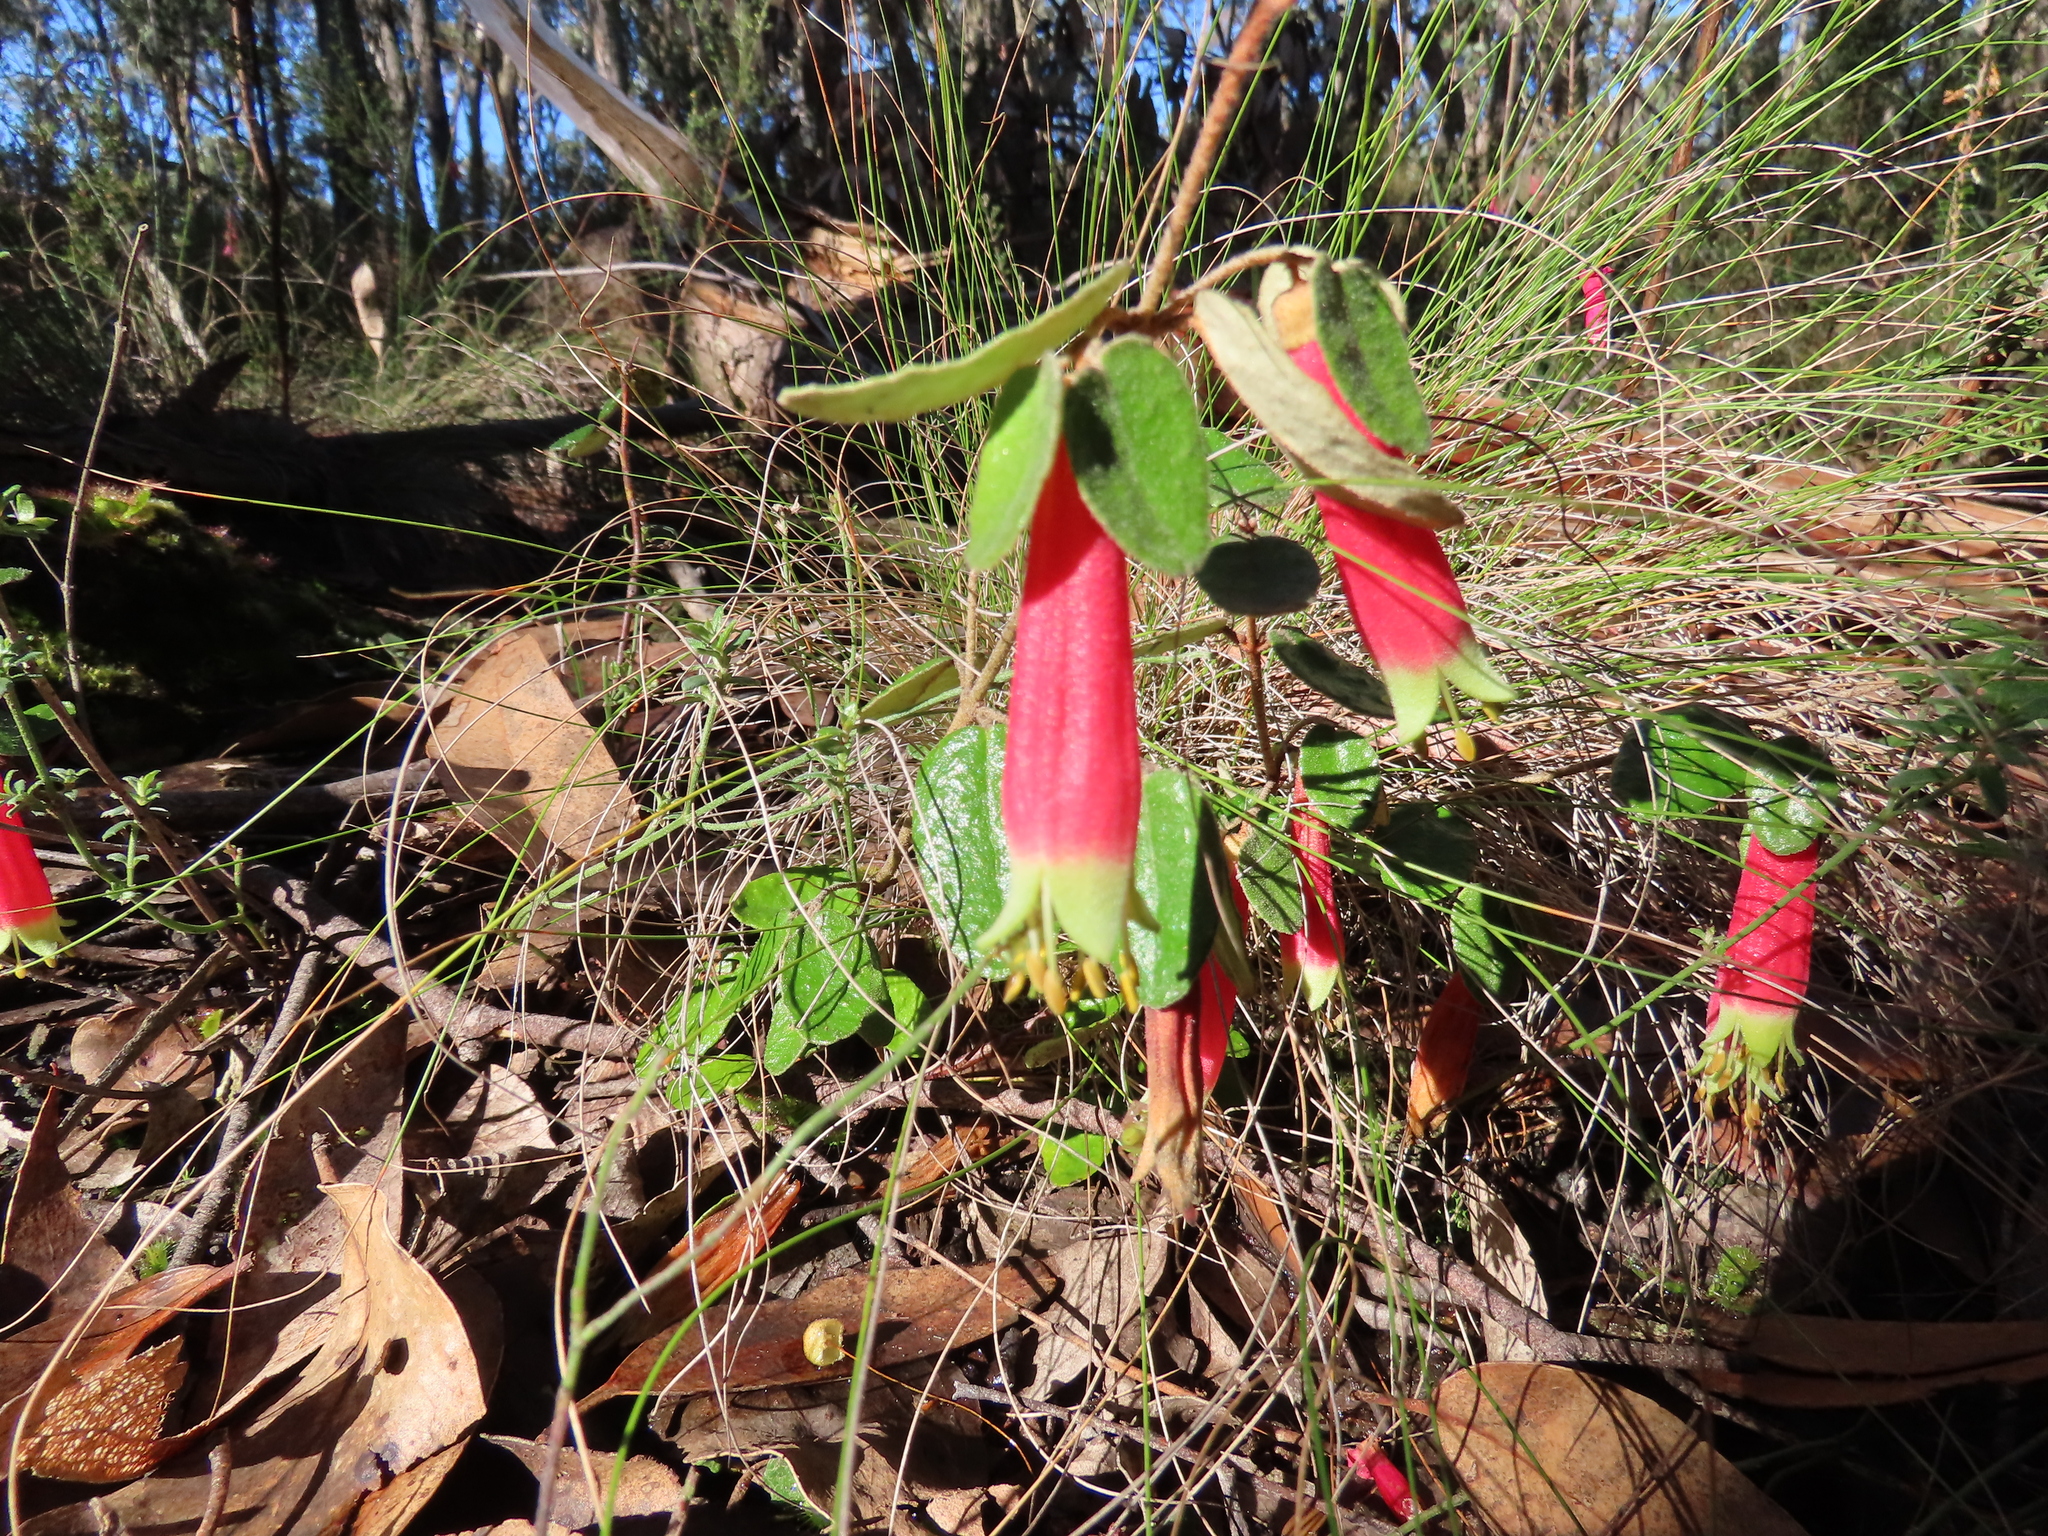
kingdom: Plantae
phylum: Tracheophyta
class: Magnoliopsida
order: Sapindales
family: Rutaceae
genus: Correa
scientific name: Correa reflexa
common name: Common correa
